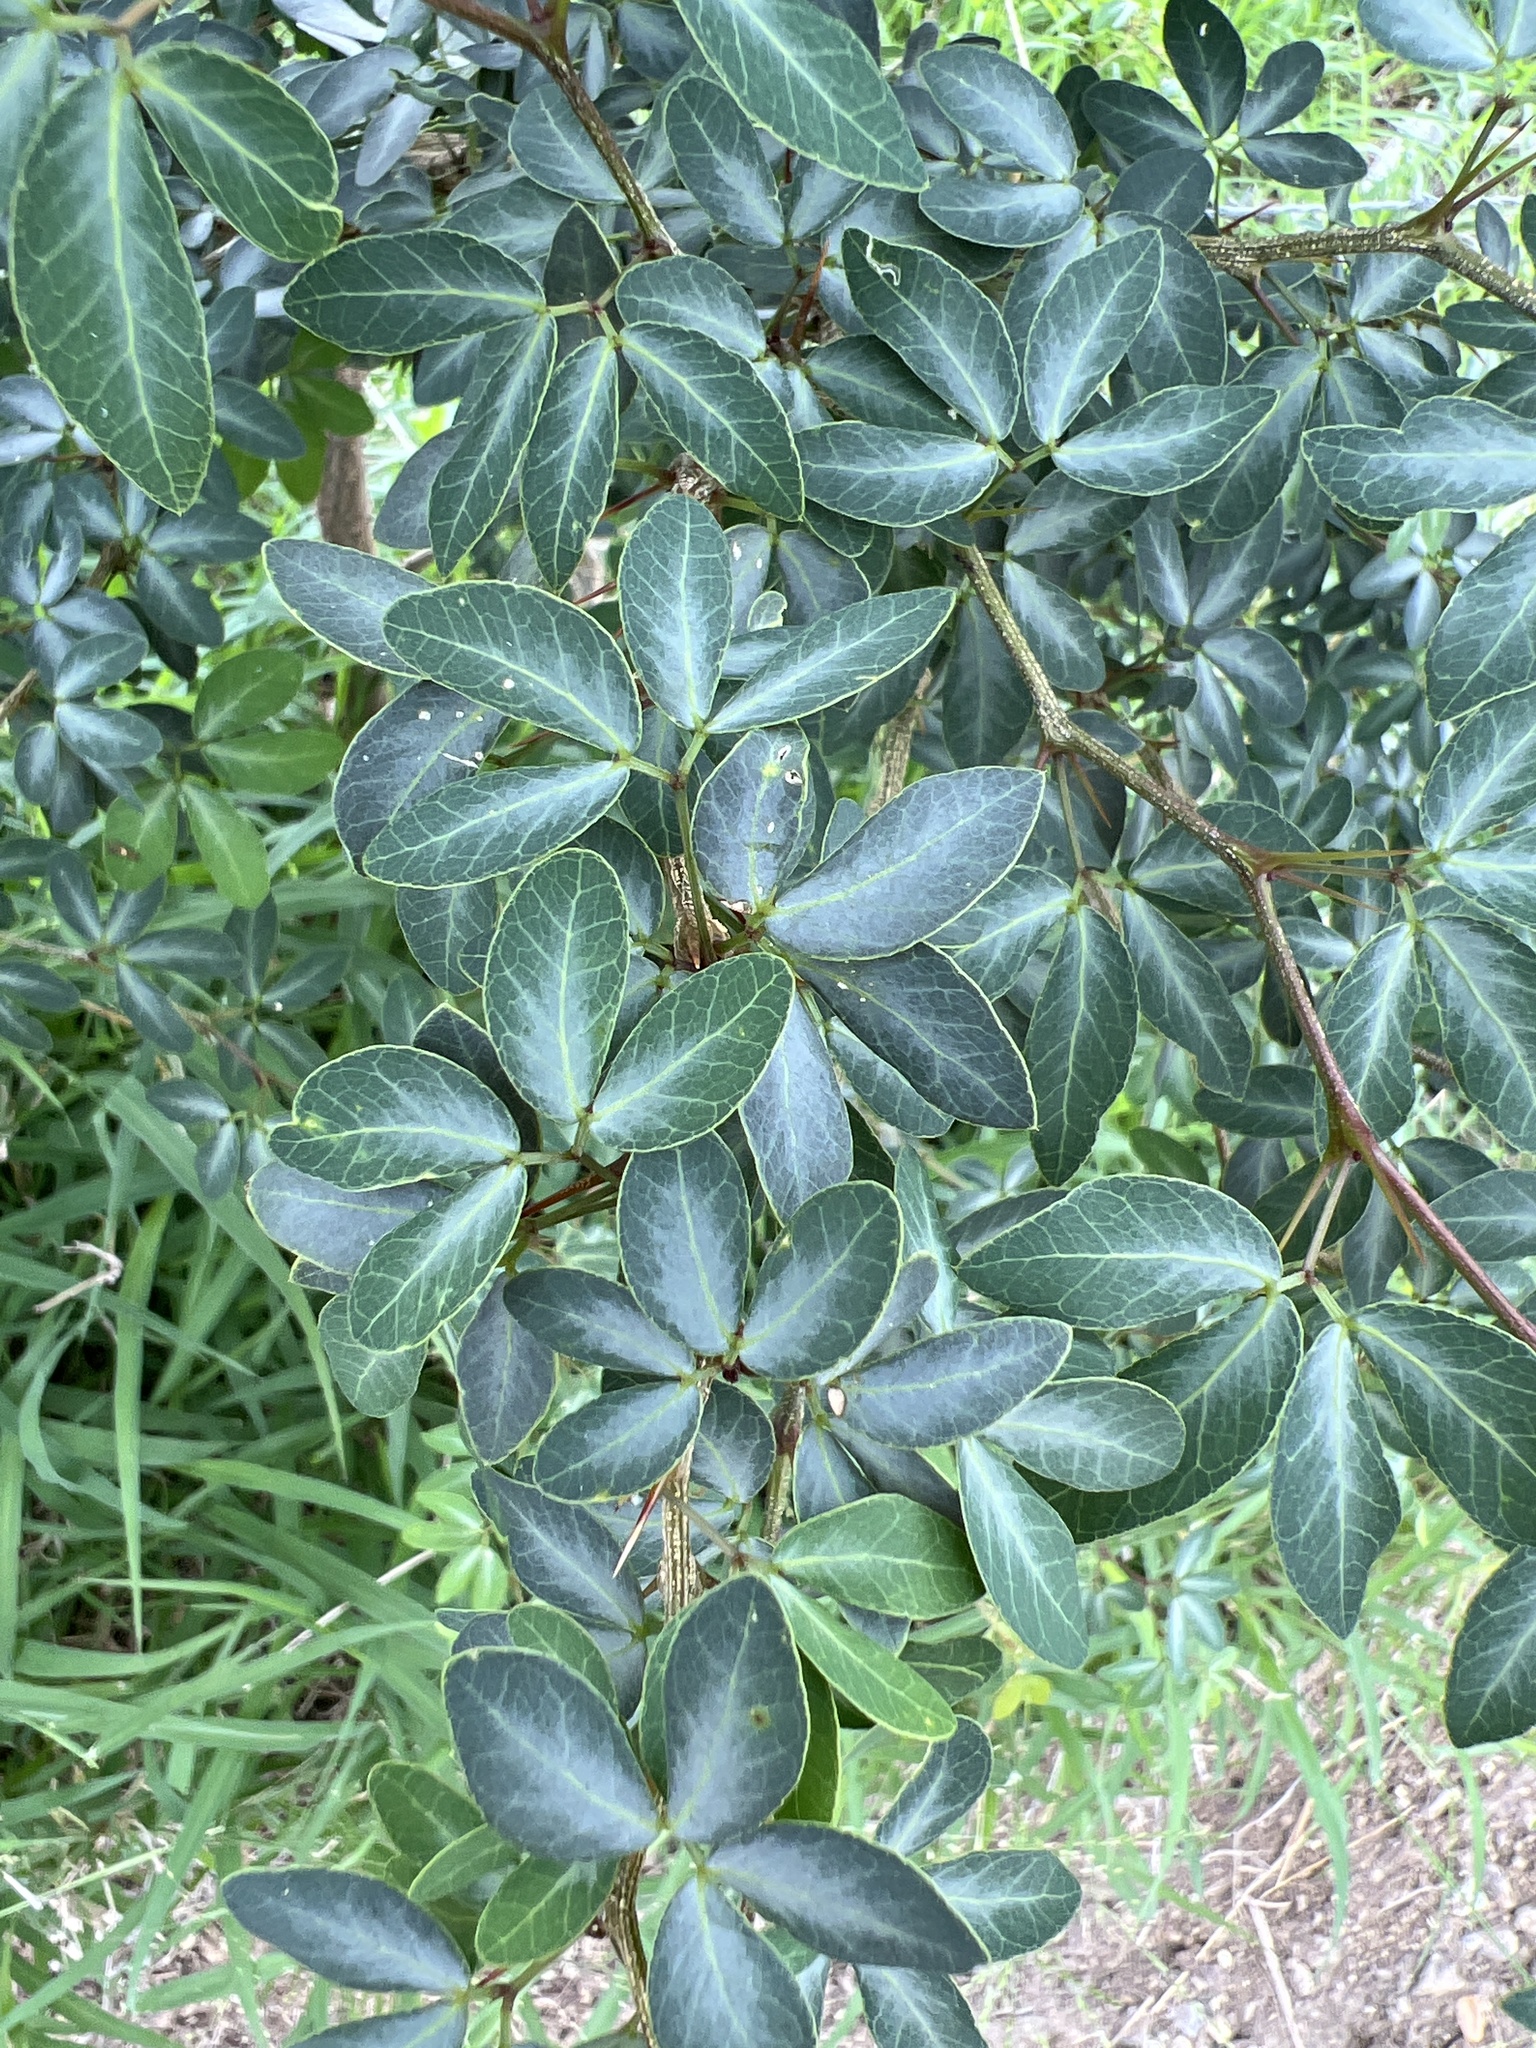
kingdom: Plantae
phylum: Tracheophyta
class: Magnoliopsida
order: Fabales
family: Fabaceae
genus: Pithecellobium
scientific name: Pithecellobium dulce
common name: Monkeypod
